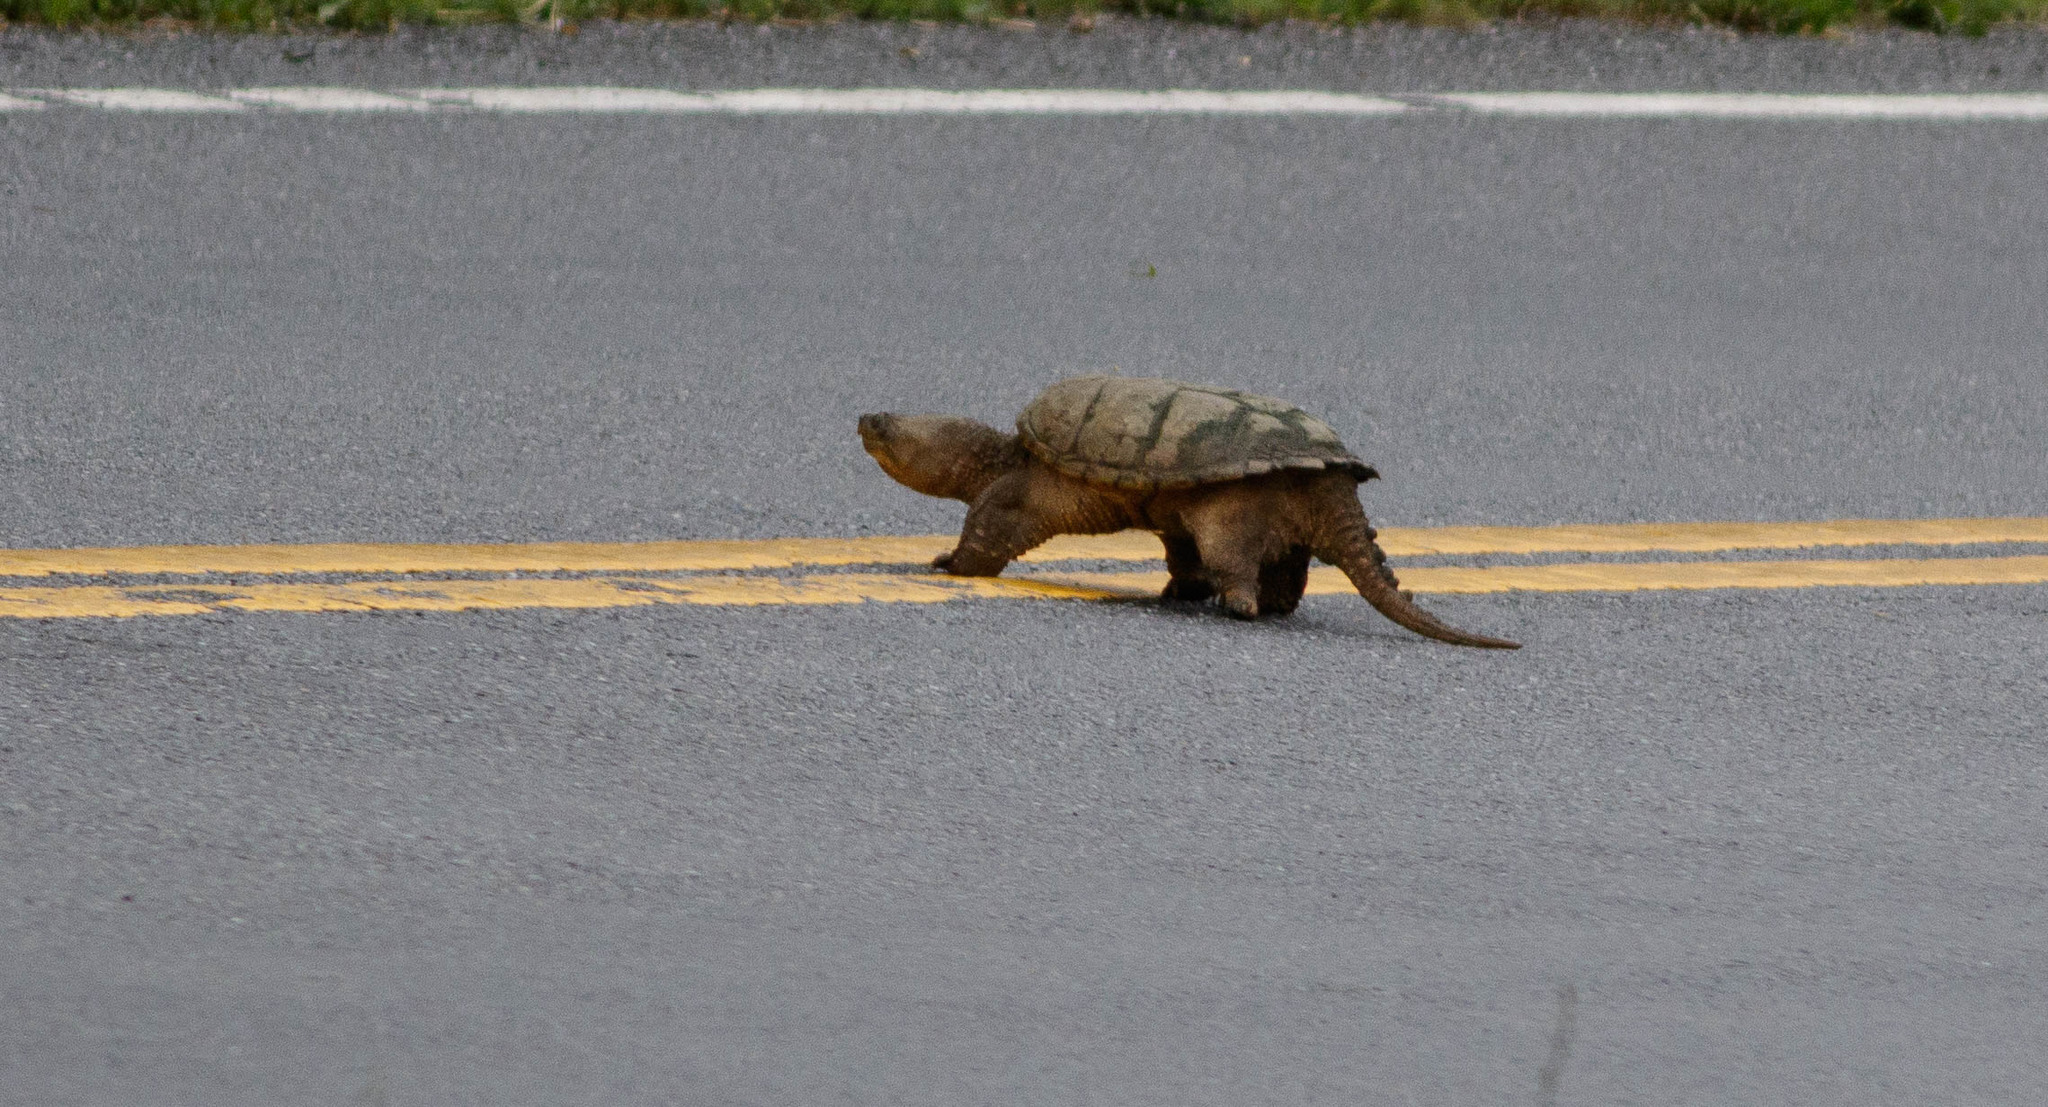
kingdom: Animalia
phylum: Chordata
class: Testudines
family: Chelydridae
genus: Chelydra
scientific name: Chelydra serpentina
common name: Common snapping turtle
